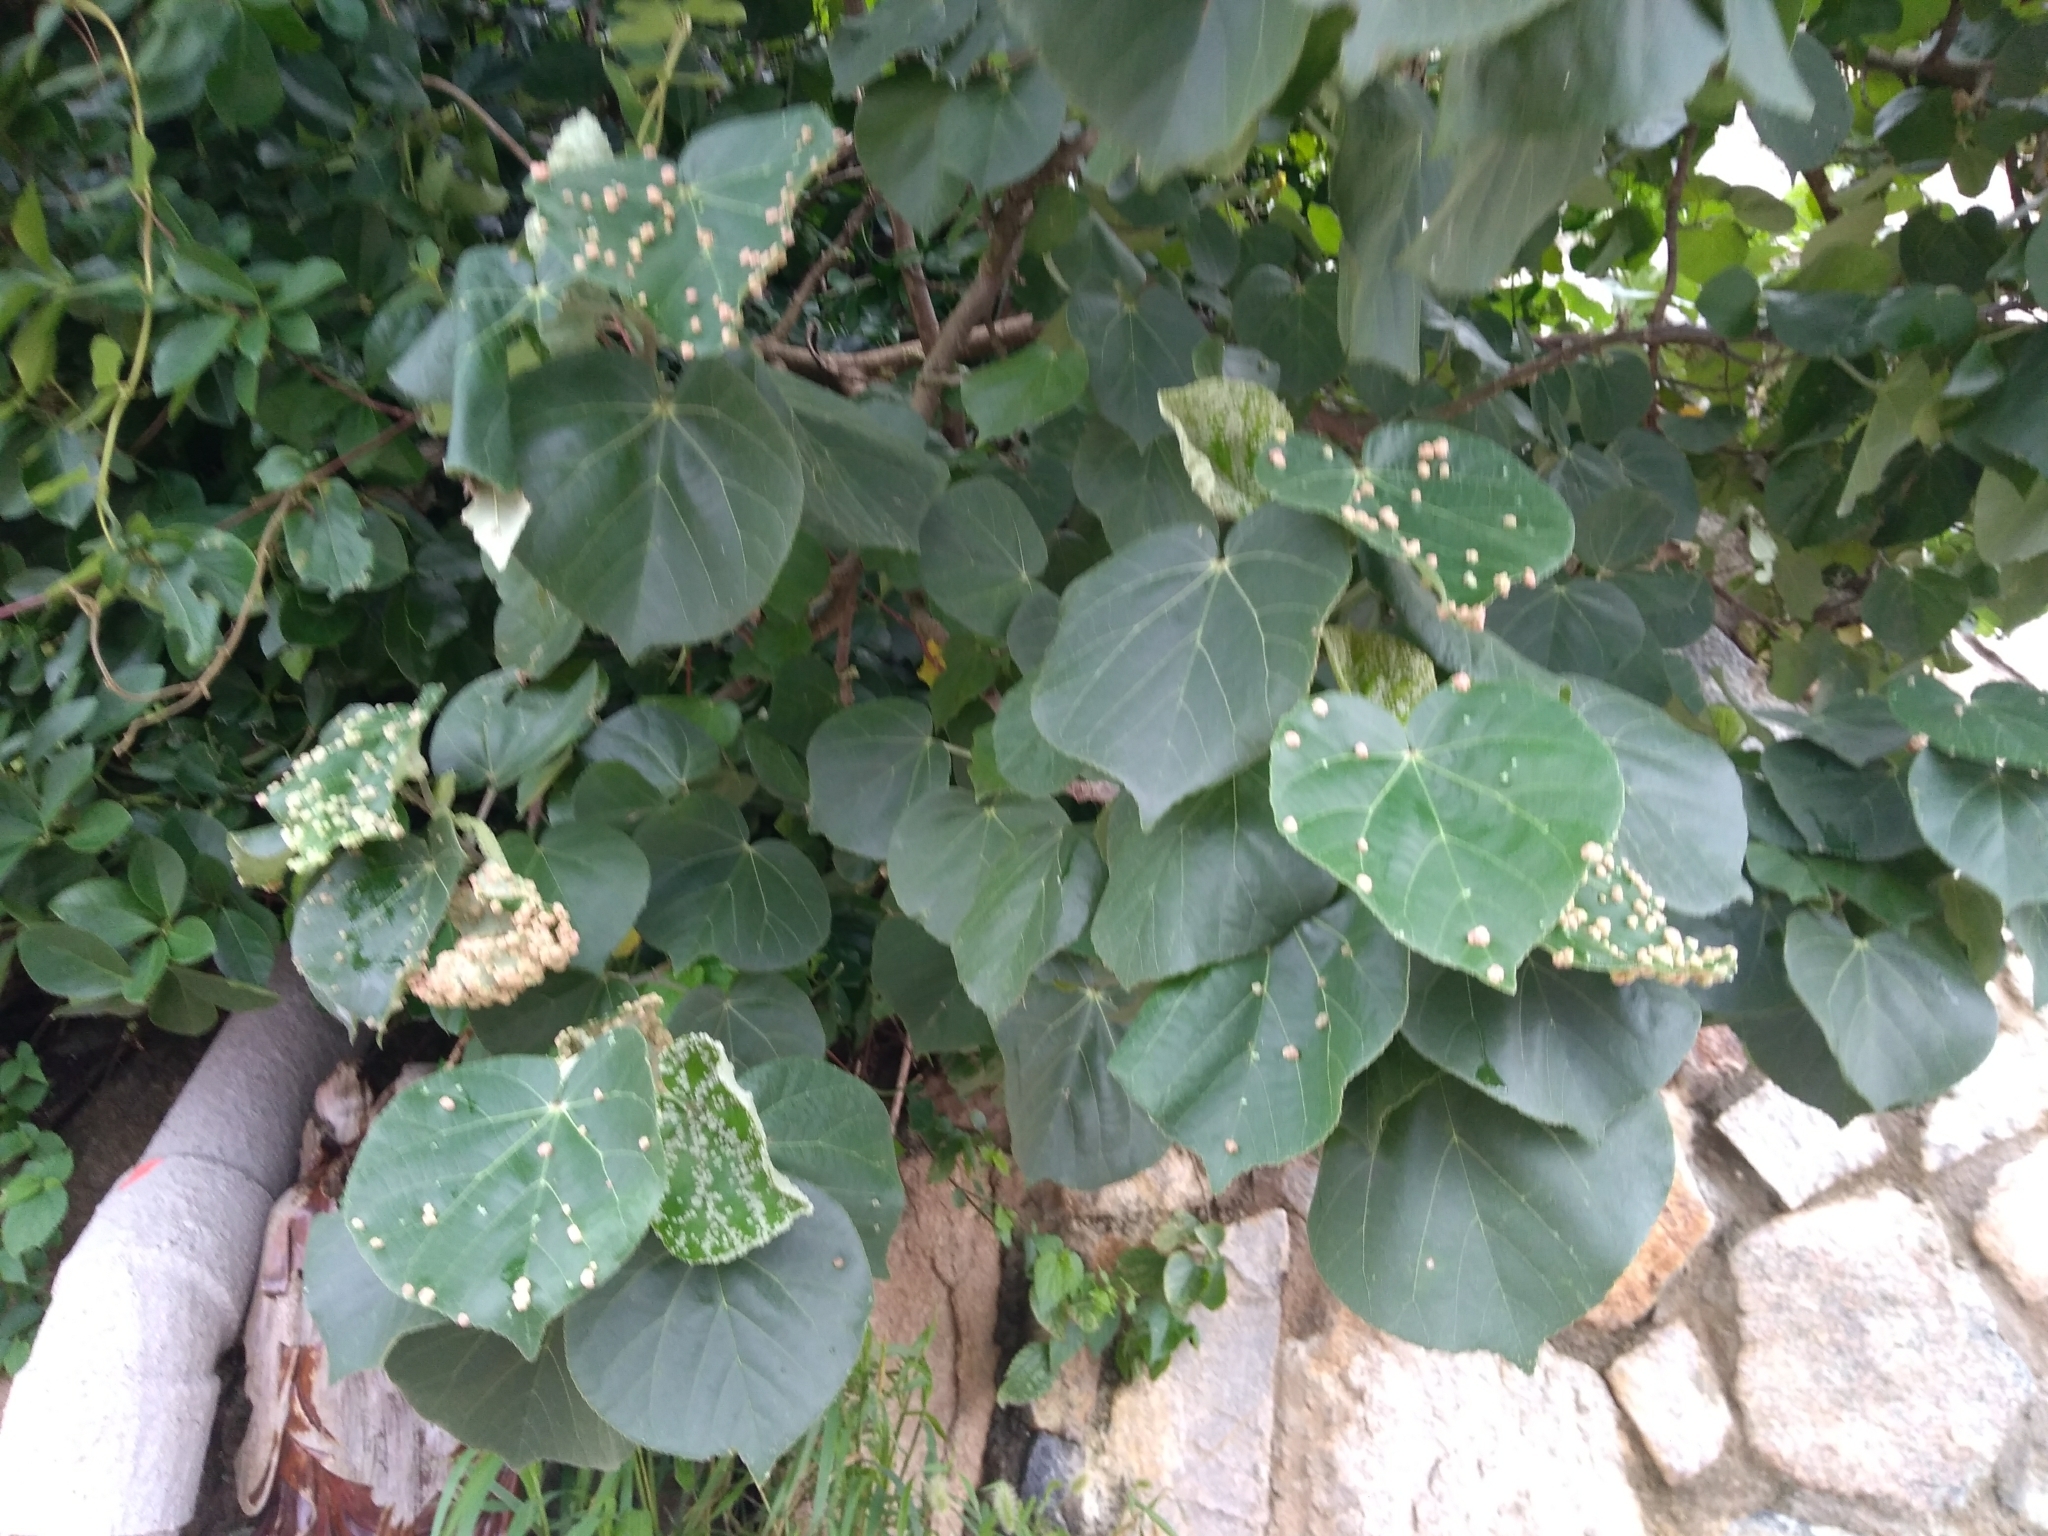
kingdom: Plantae
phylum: Tracheophyta
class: Magnoliopsida
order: Malvales
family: Malvaceae
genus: Talipariti
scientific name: Talipariti tiliaceum
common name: Sea hibiscus
